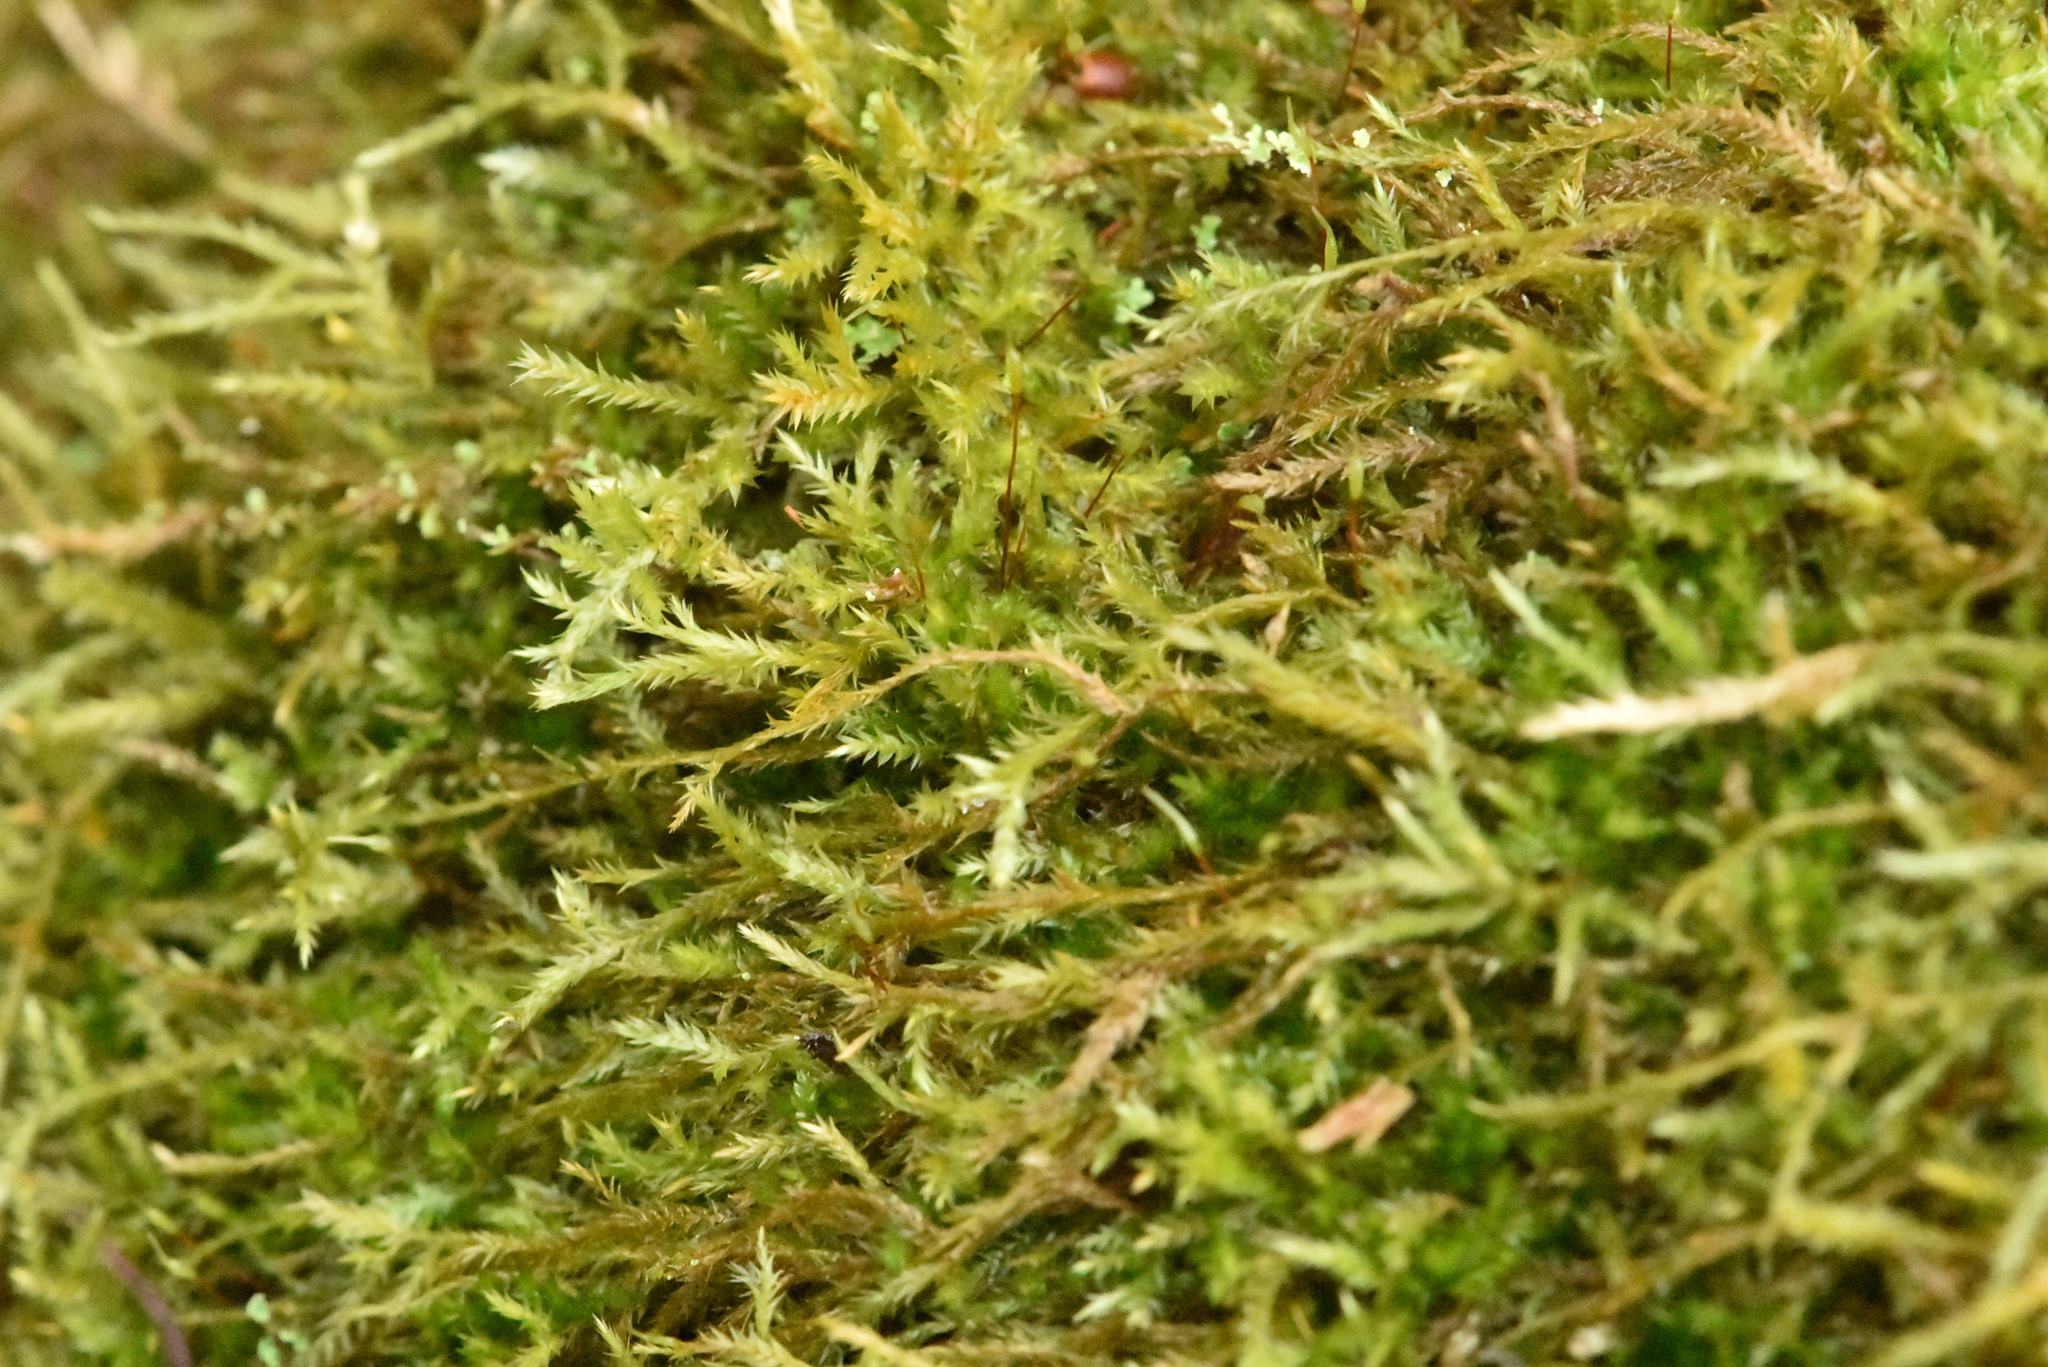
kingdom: Plantae
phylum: Bryophyta
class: Bryopsida
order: Hypnales
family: Neckeraceae
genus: Pseudanomodon
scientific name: Pseudanomodon attenuatus
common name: Tree-skirt moss
